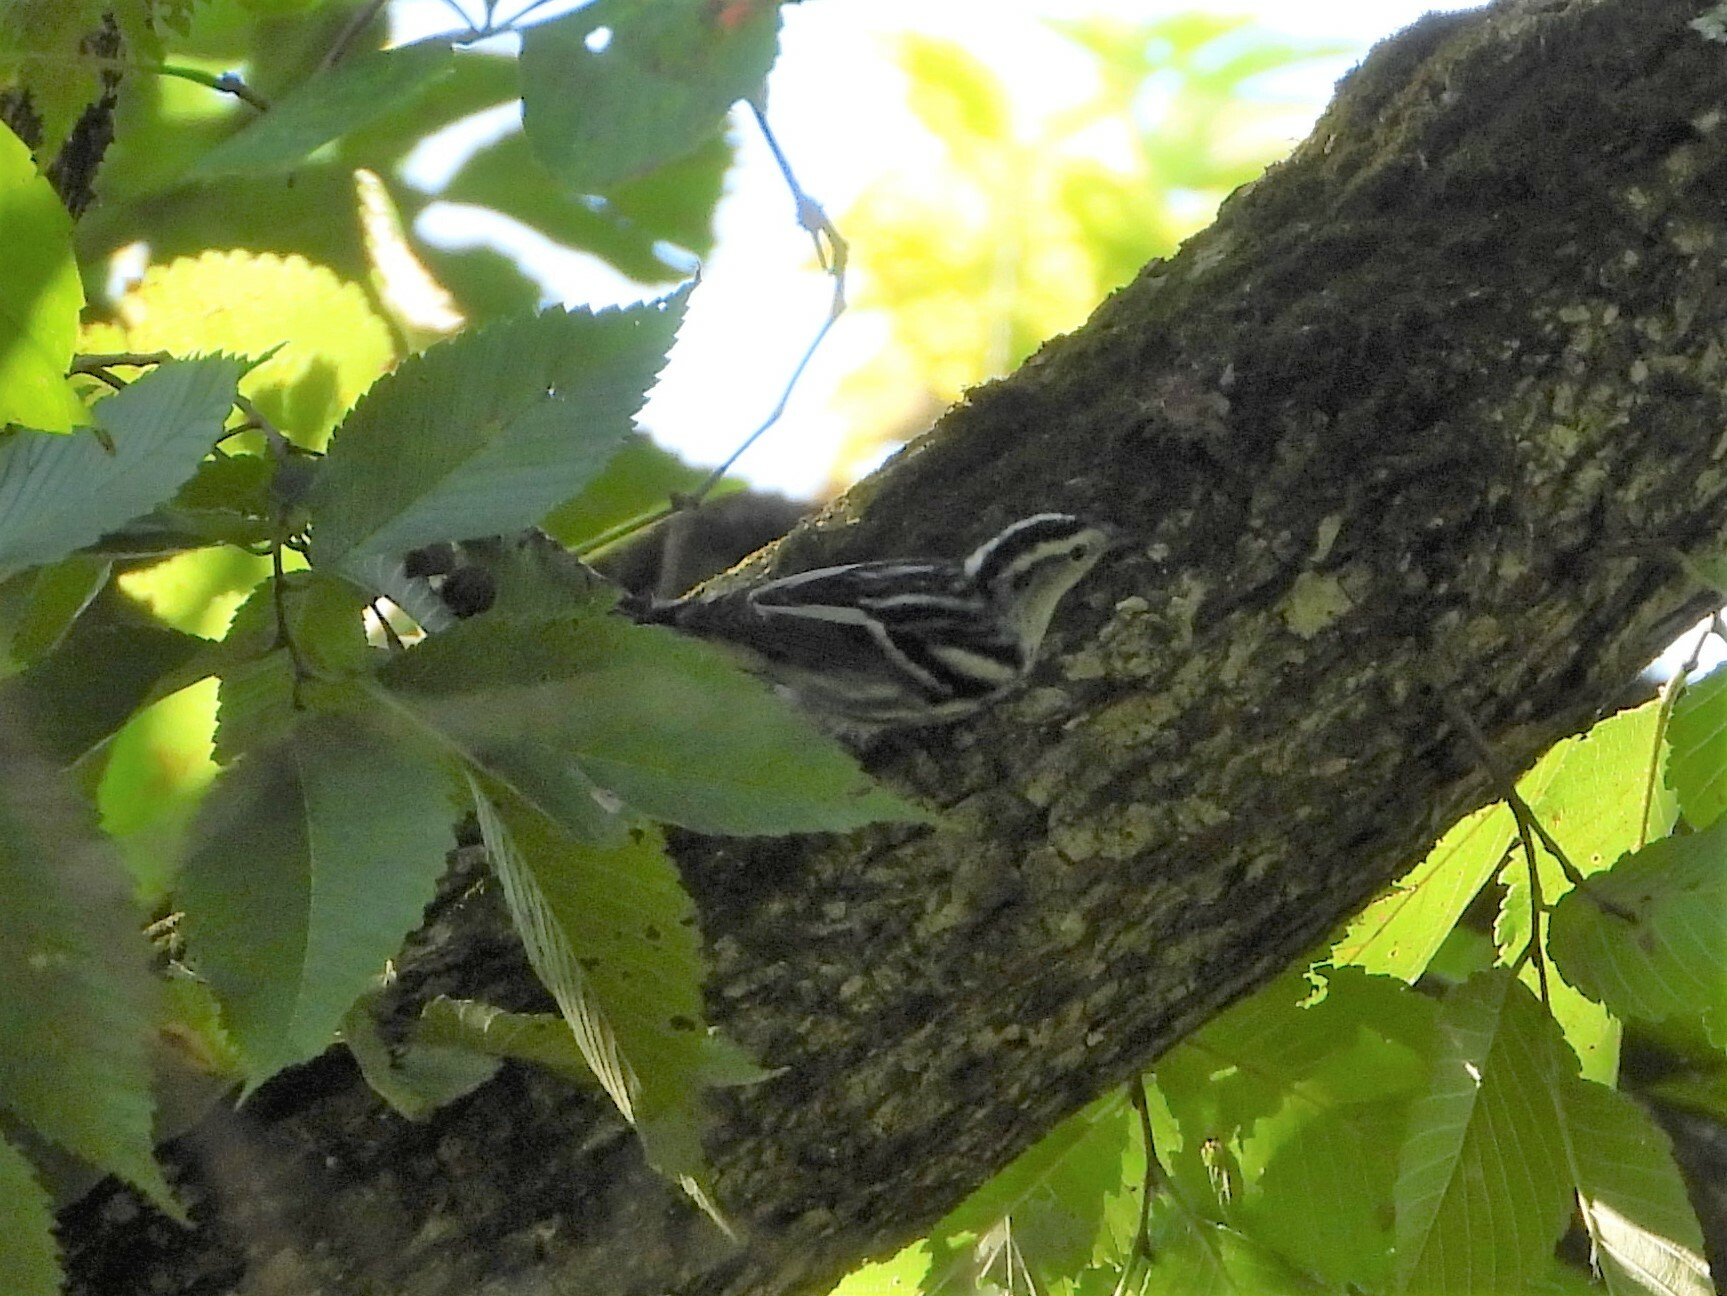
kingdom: Animalia
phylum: Chordata
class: Aves
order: Passeriformes
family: Parulidae
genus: Mniotilta
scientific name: Mniotilta varia
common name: Black-and-white warbler
